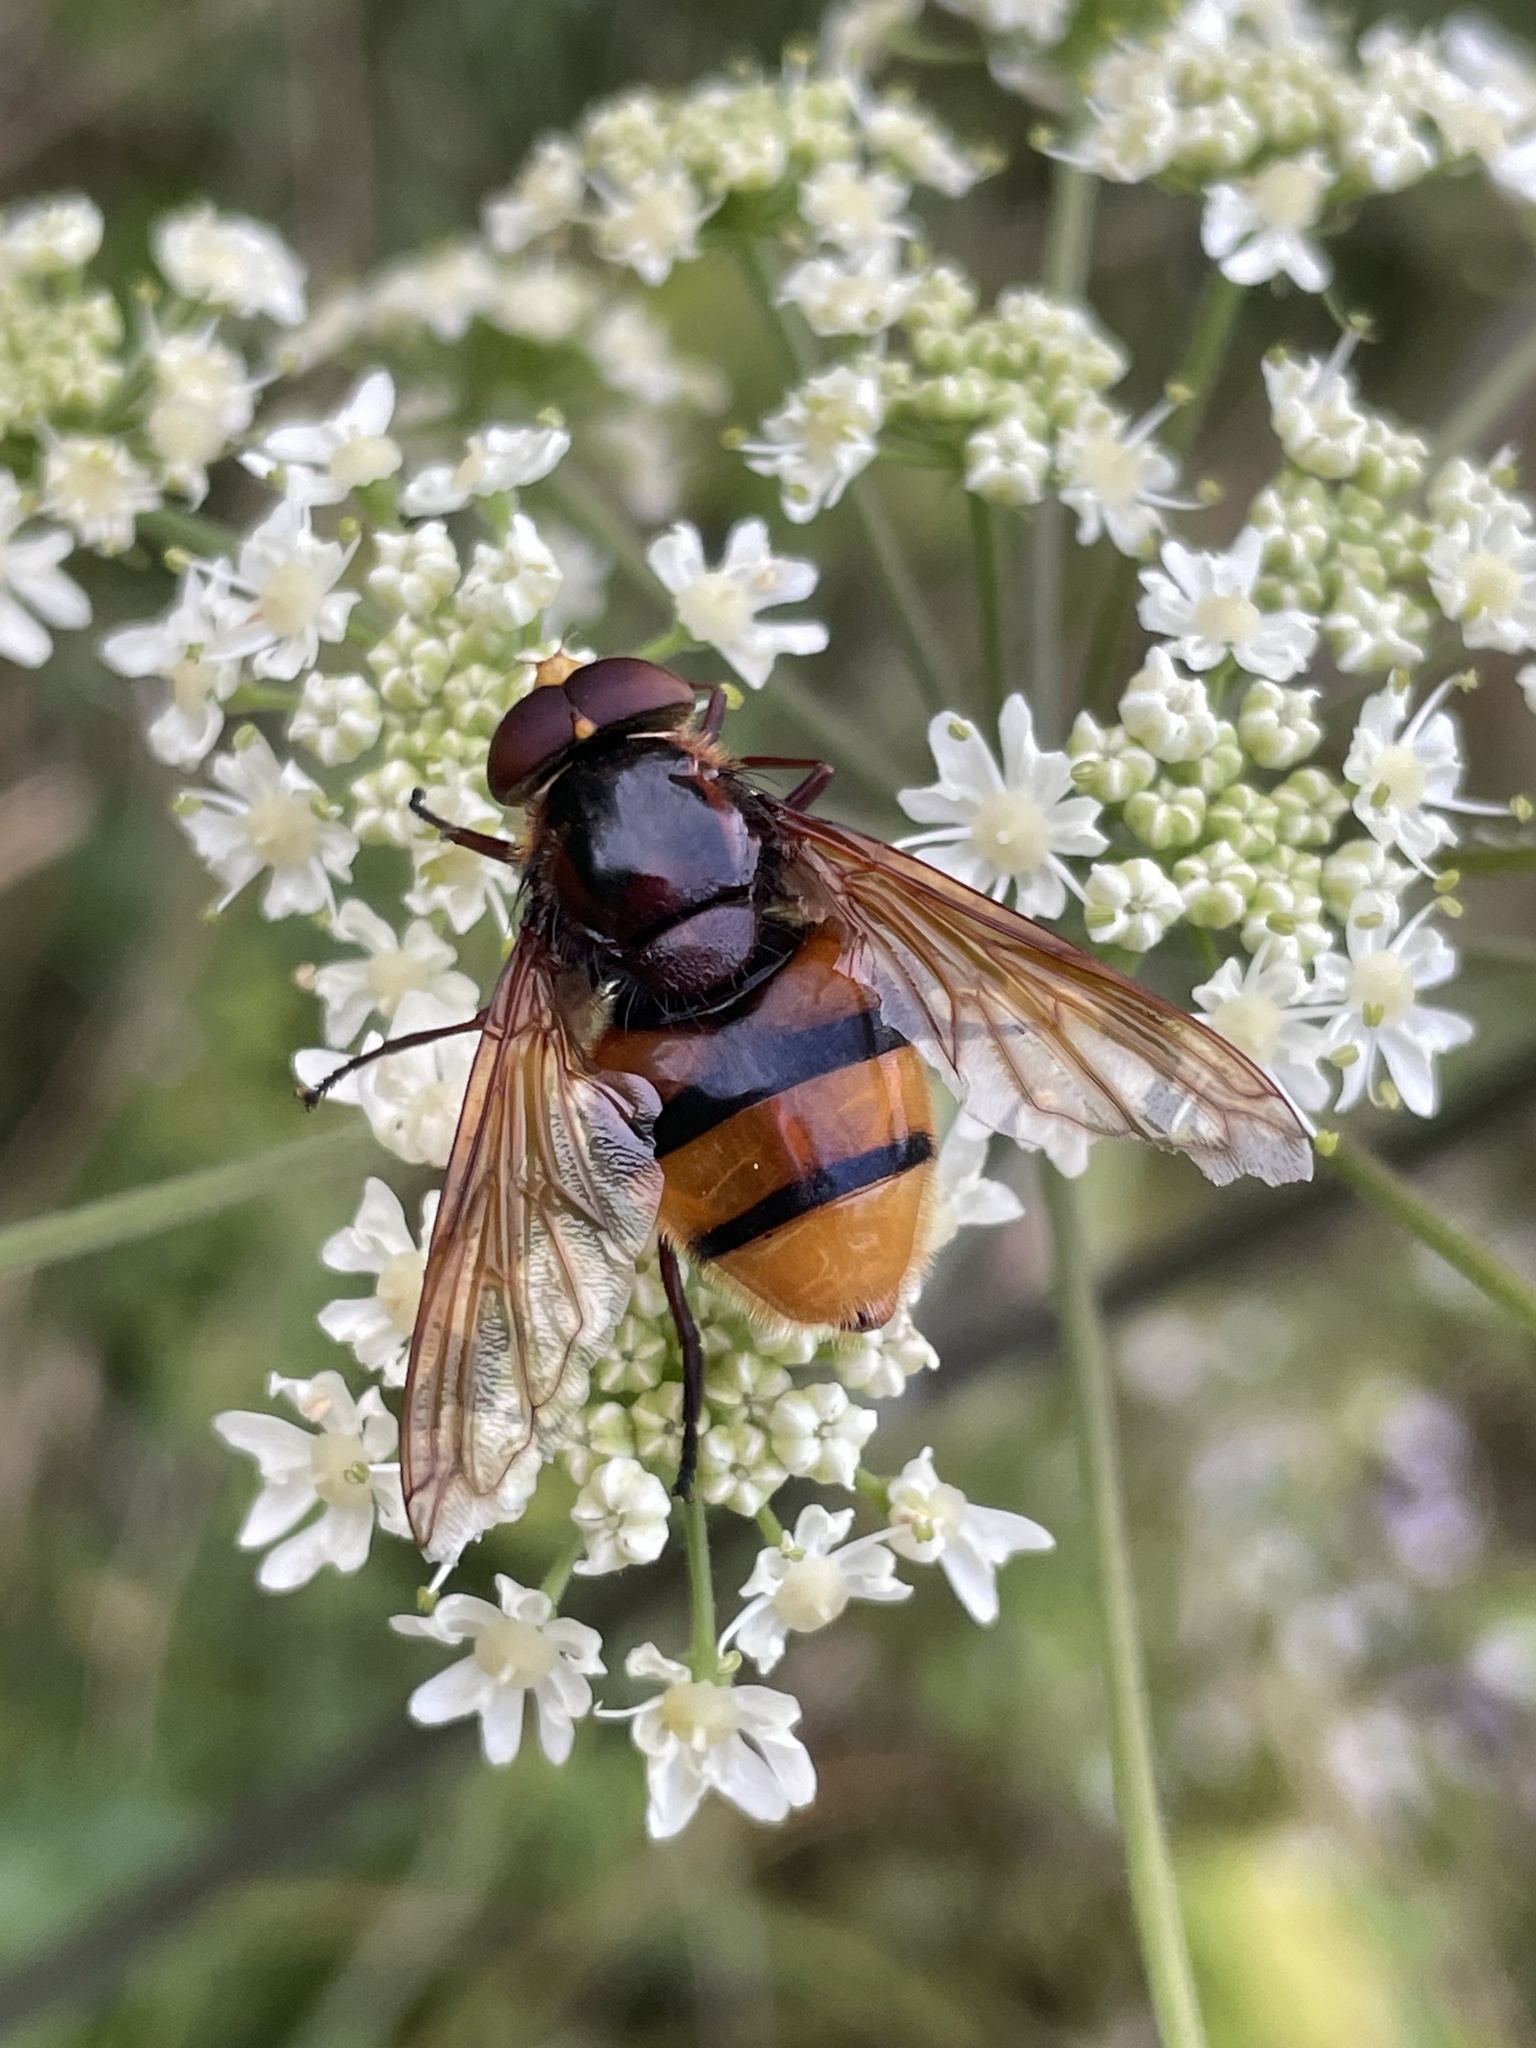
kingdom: Animalia
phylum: Arthropoda
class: Insecta
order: Diptera
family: Syrphidae
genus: Volucella
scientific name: Volucella zonaria
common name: Hornet hoverfly
